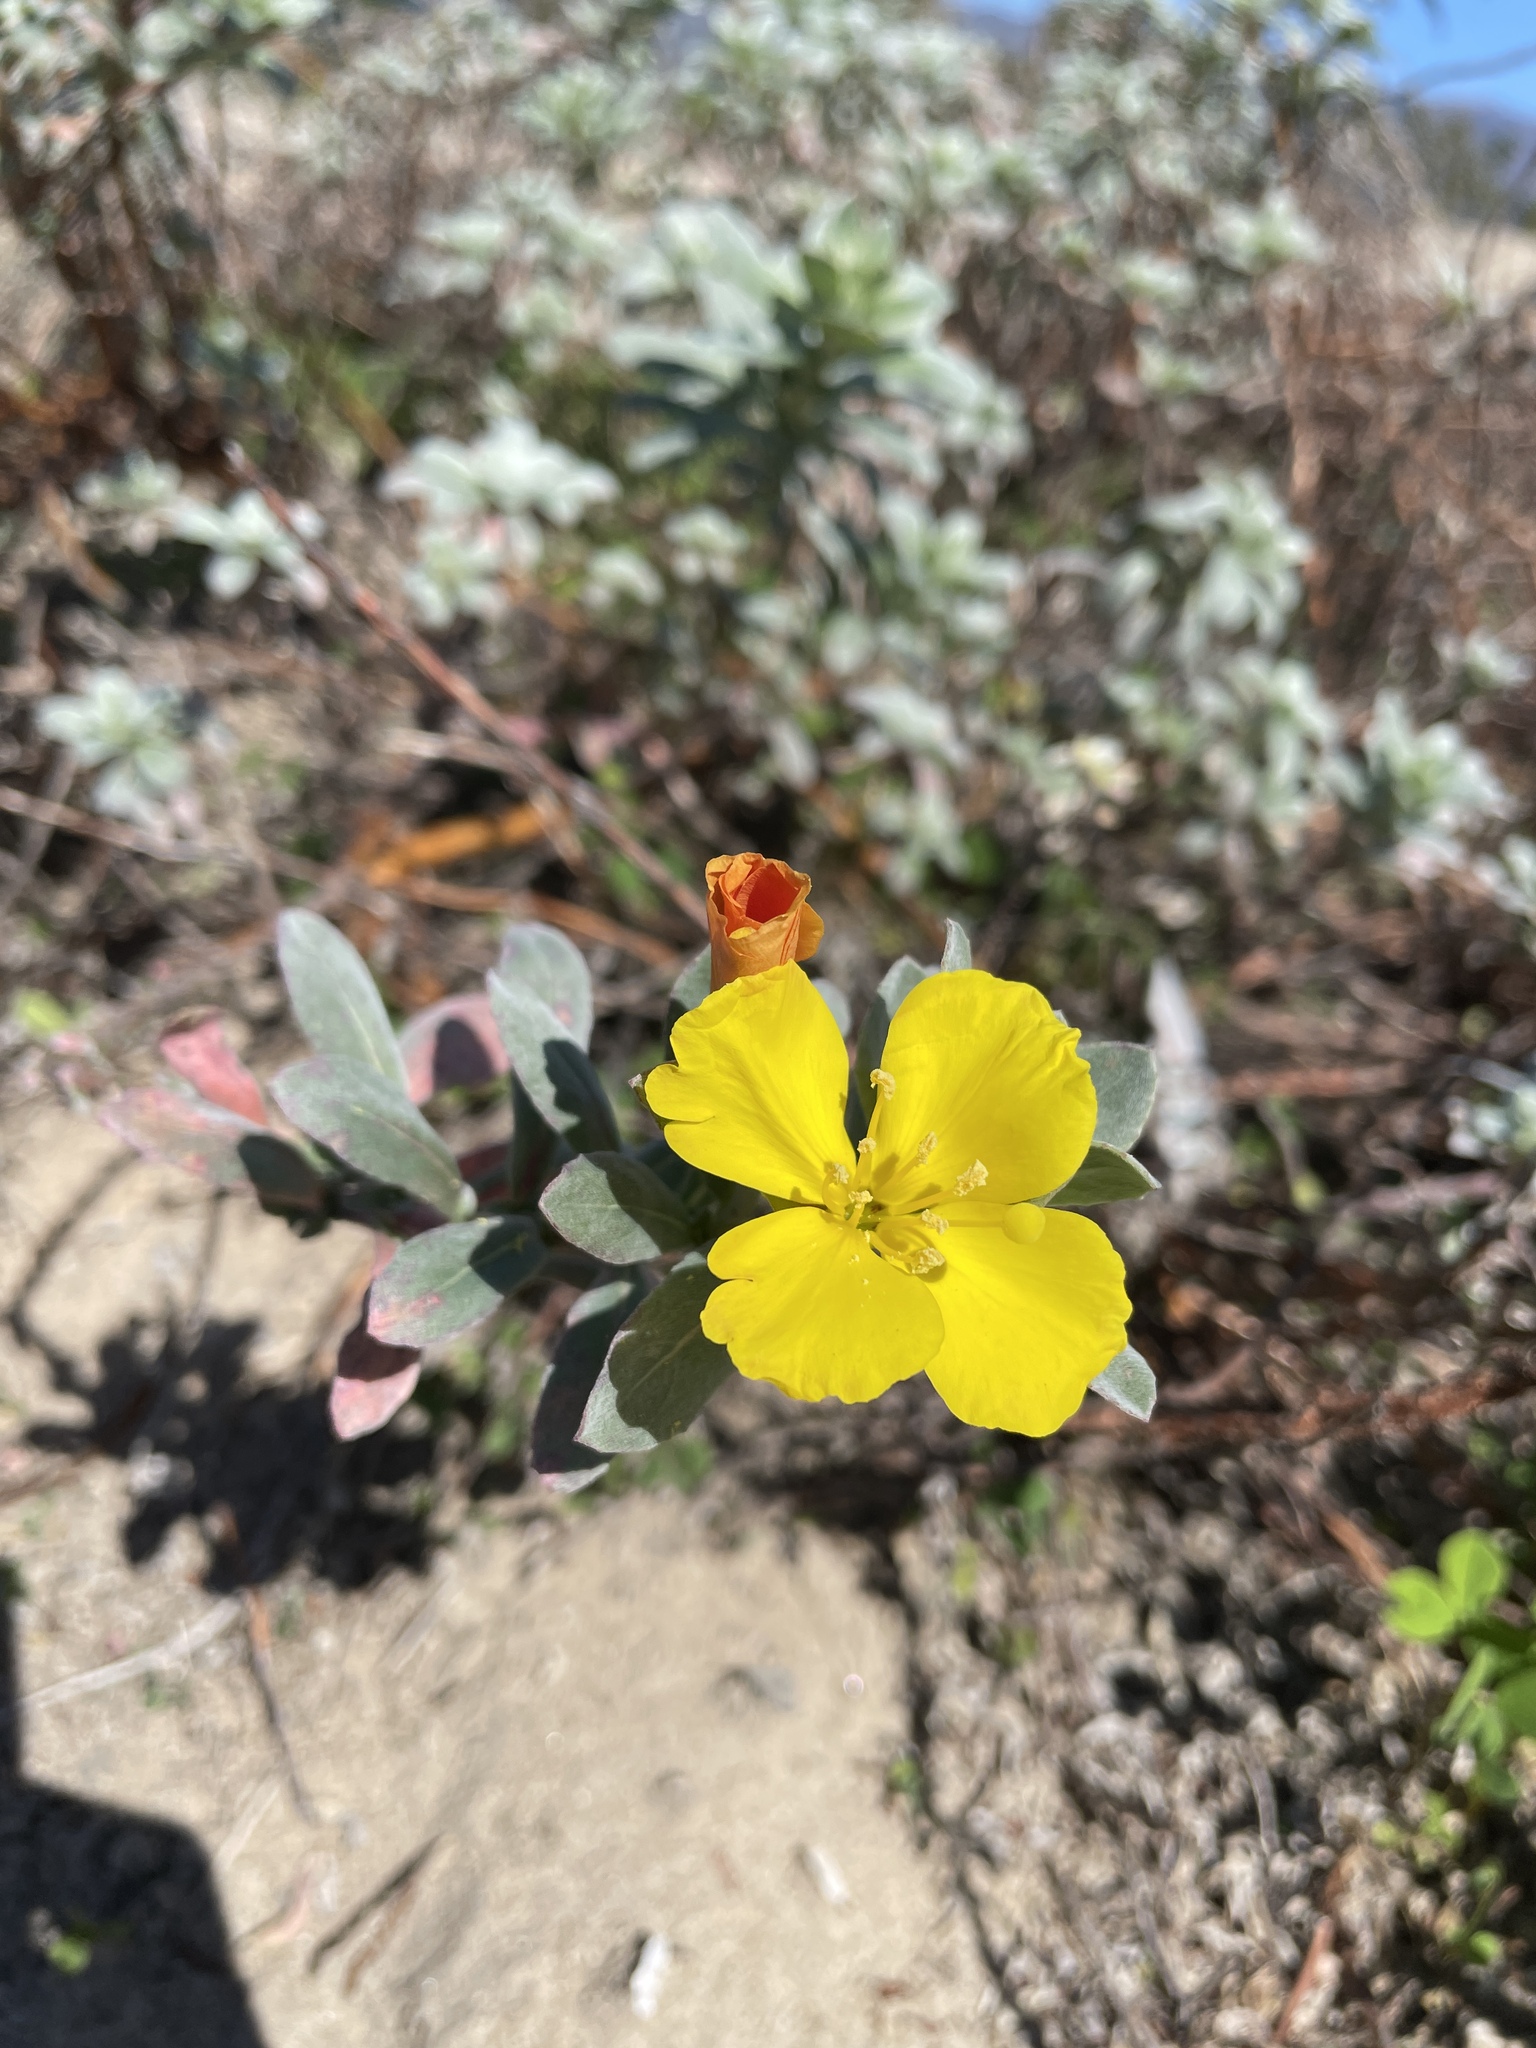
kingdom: Plantae
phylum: Tracheophyta
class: Magnoliopsida
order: Myrtales
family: Onagraceae
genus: Camissoniopsis
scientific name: Camissoniopsis cheiranthifolia
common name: Beach suncup
